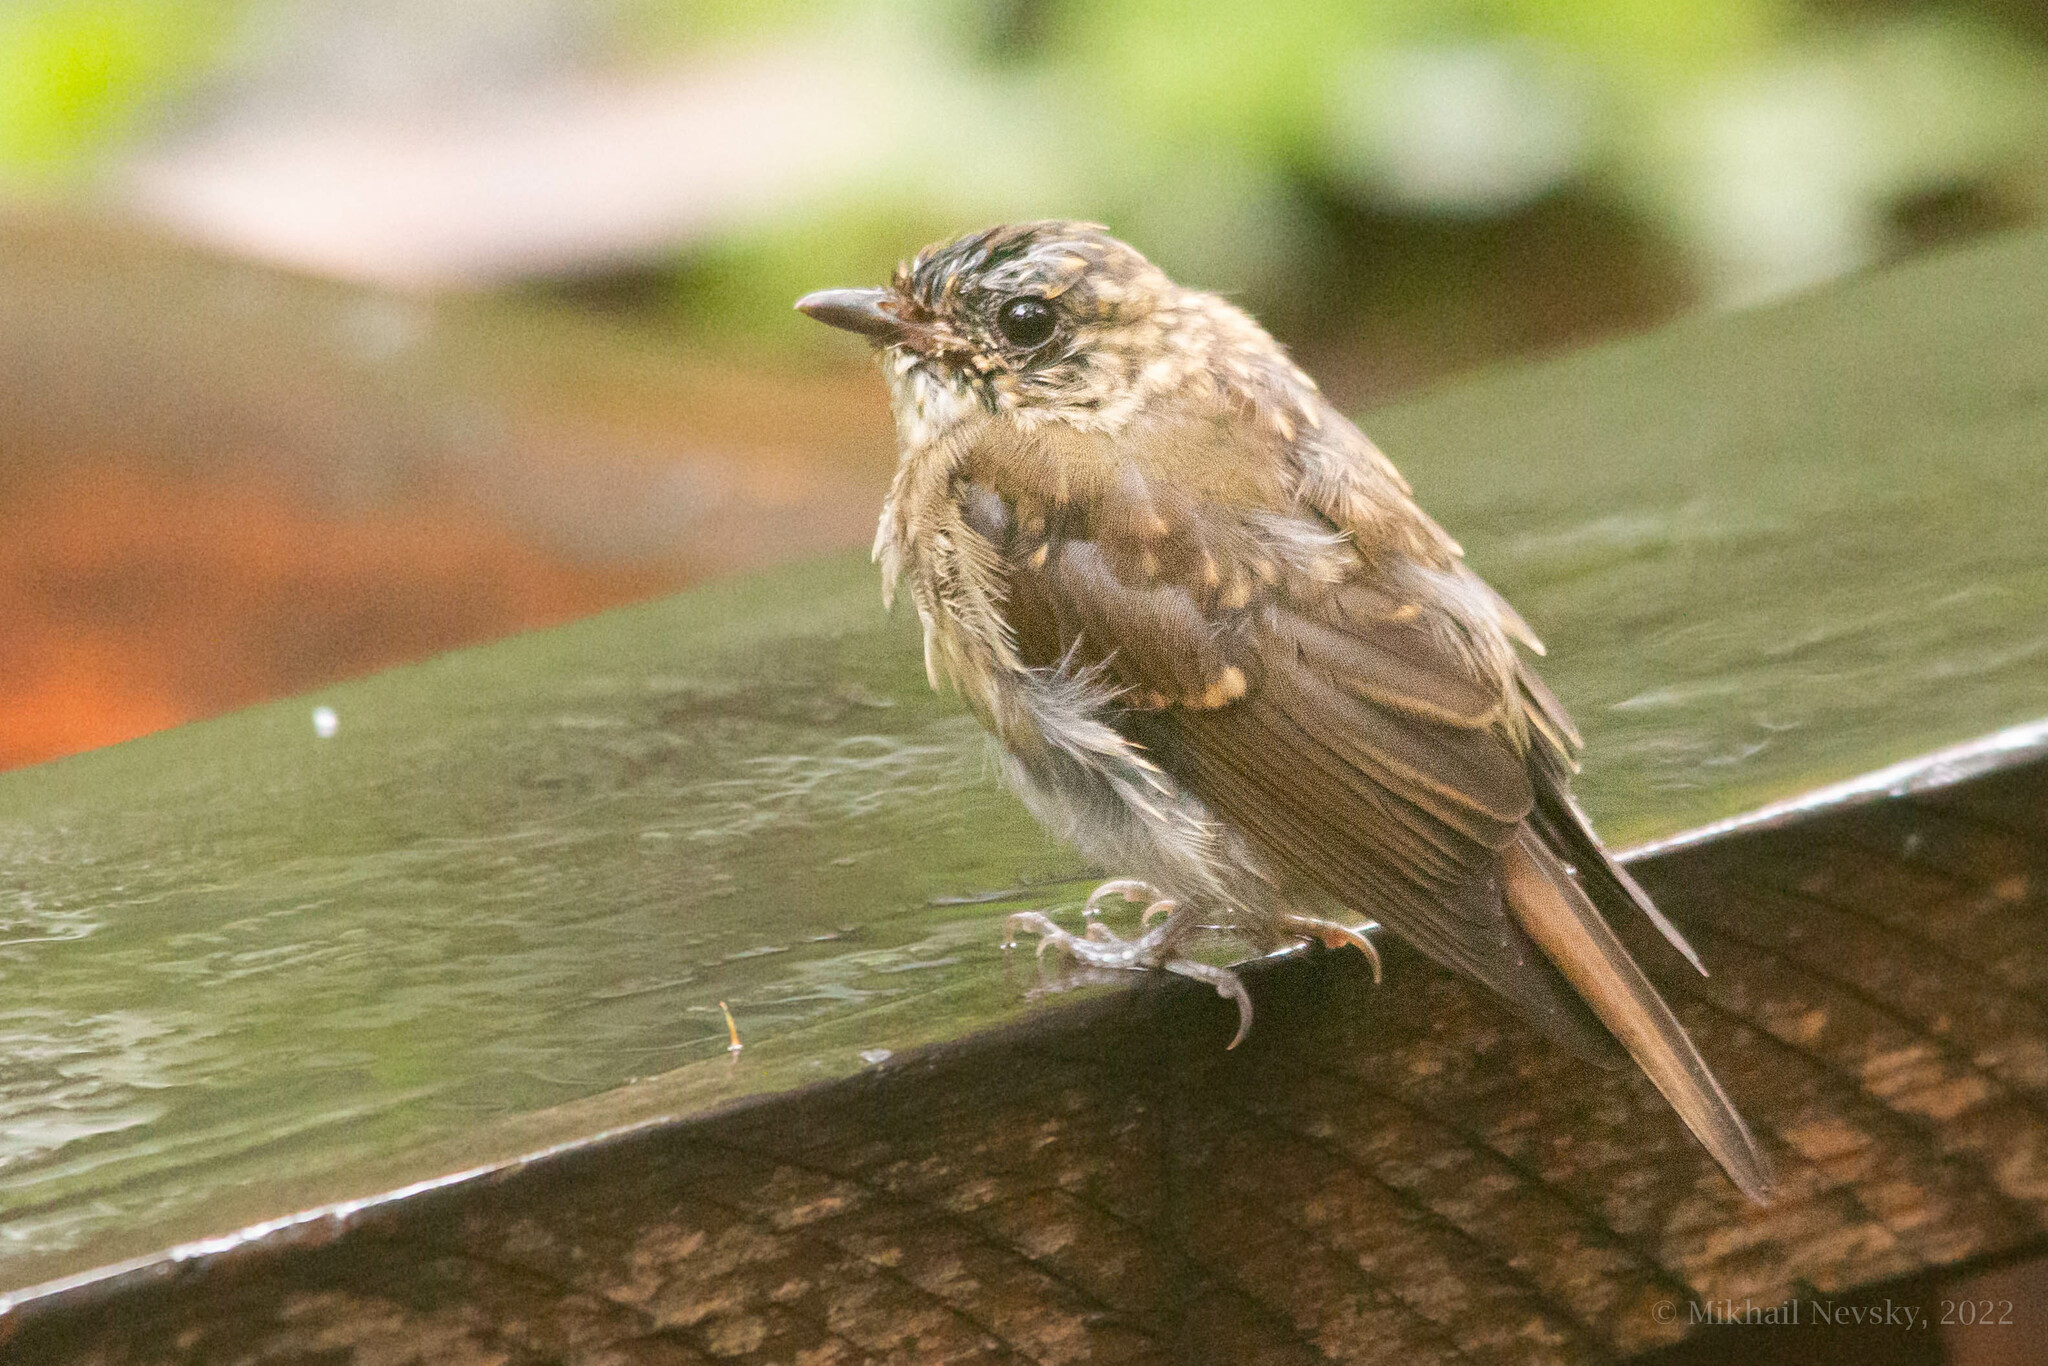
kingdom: Animalia
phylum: Chordata
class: Aves
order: Passeriformes
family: Muscicapidae
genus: Ficedula
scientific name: Ficedula narcissina
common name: Narcissus flycatcher
